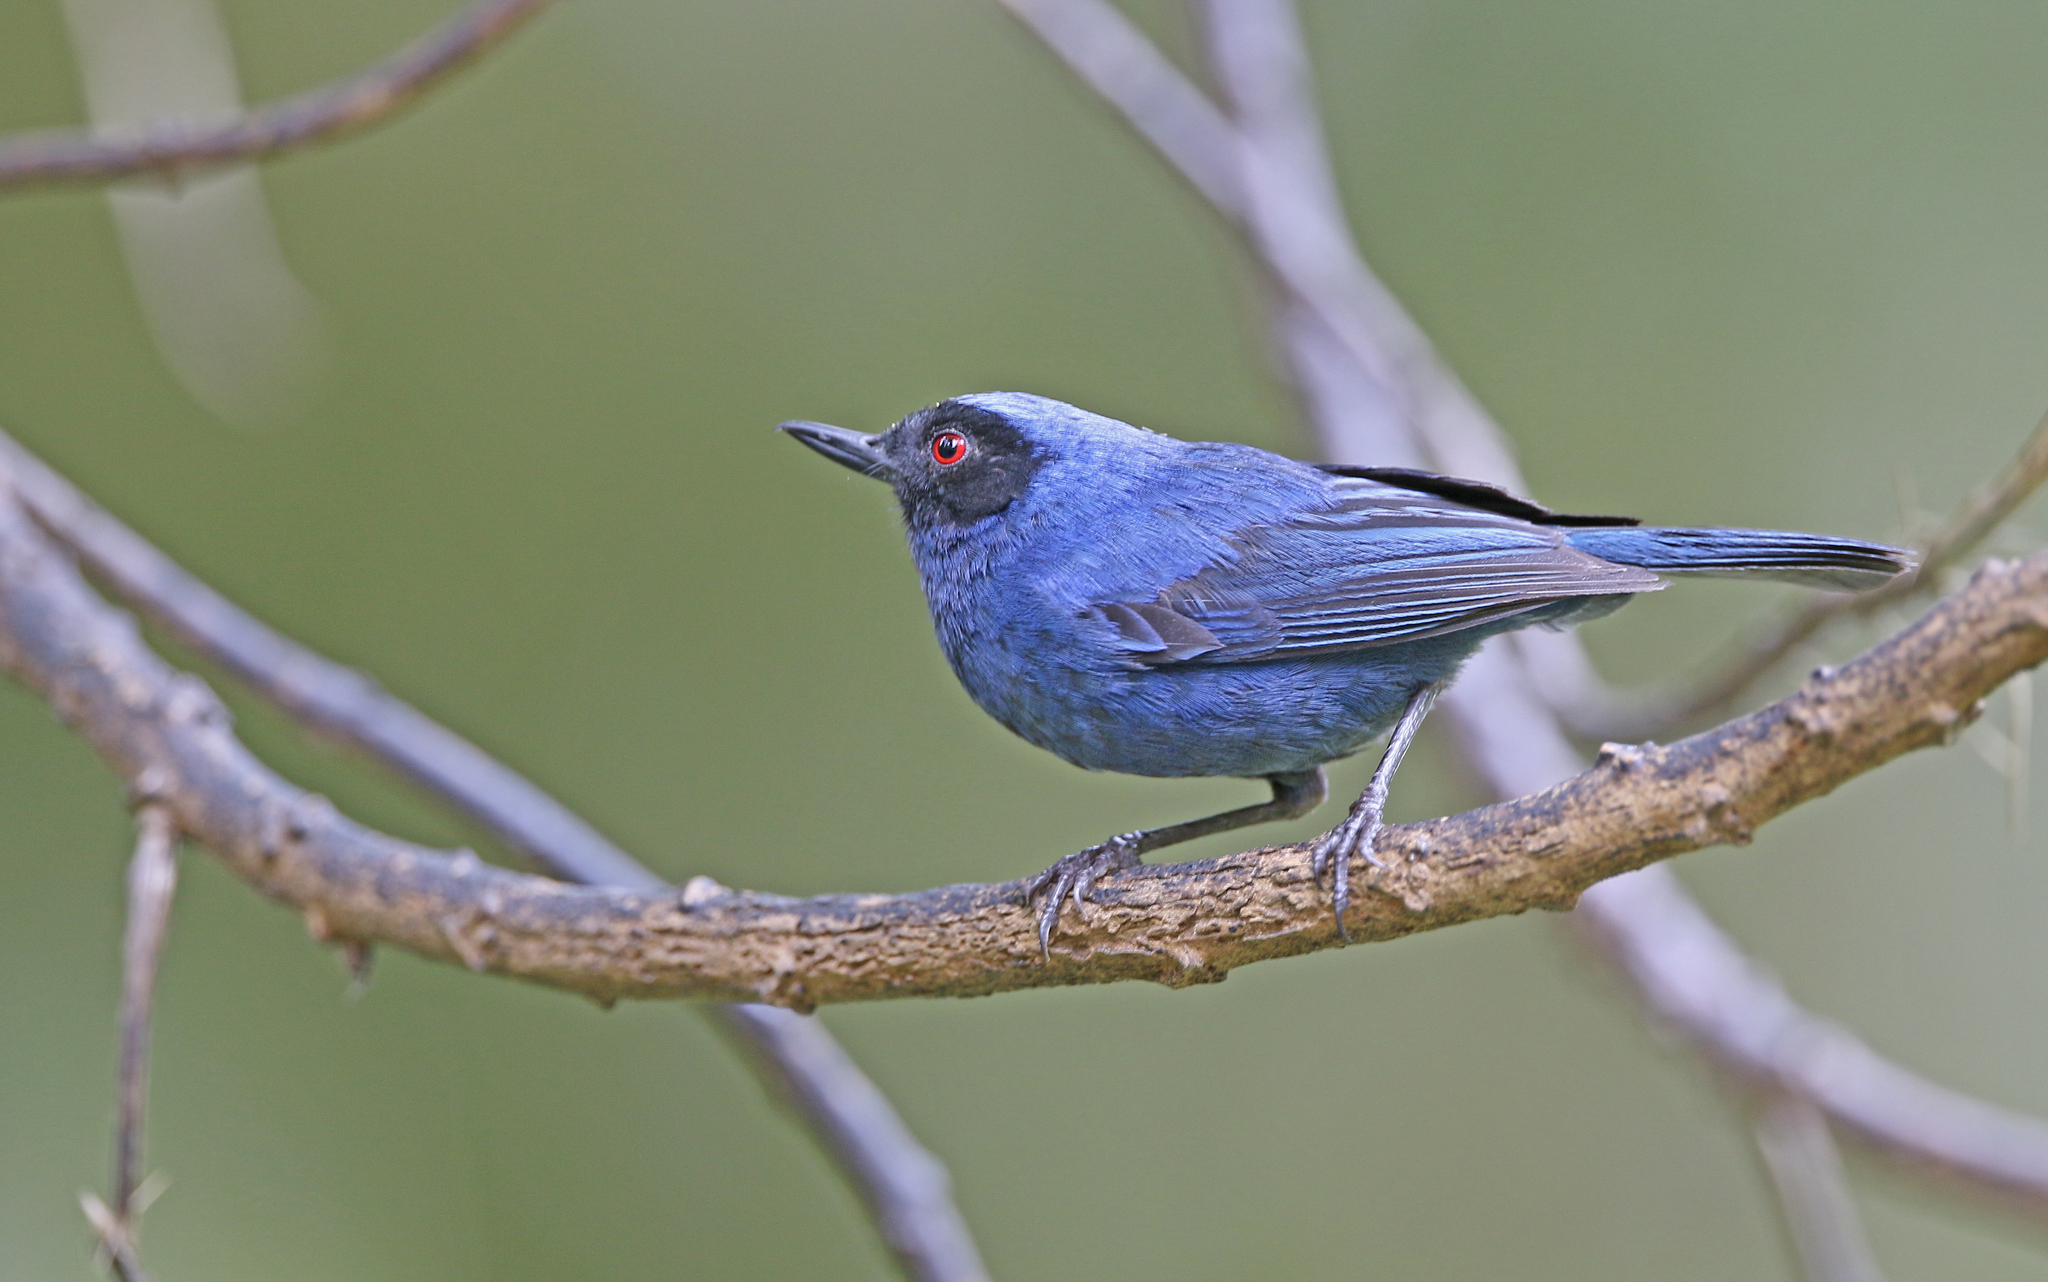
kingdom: Animalia
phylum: Chordata
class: Aves
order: Passeriformes
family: Thraupidae
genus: Diglossa
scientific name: Diglossa cyanea
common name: Masked flowerpiercer
